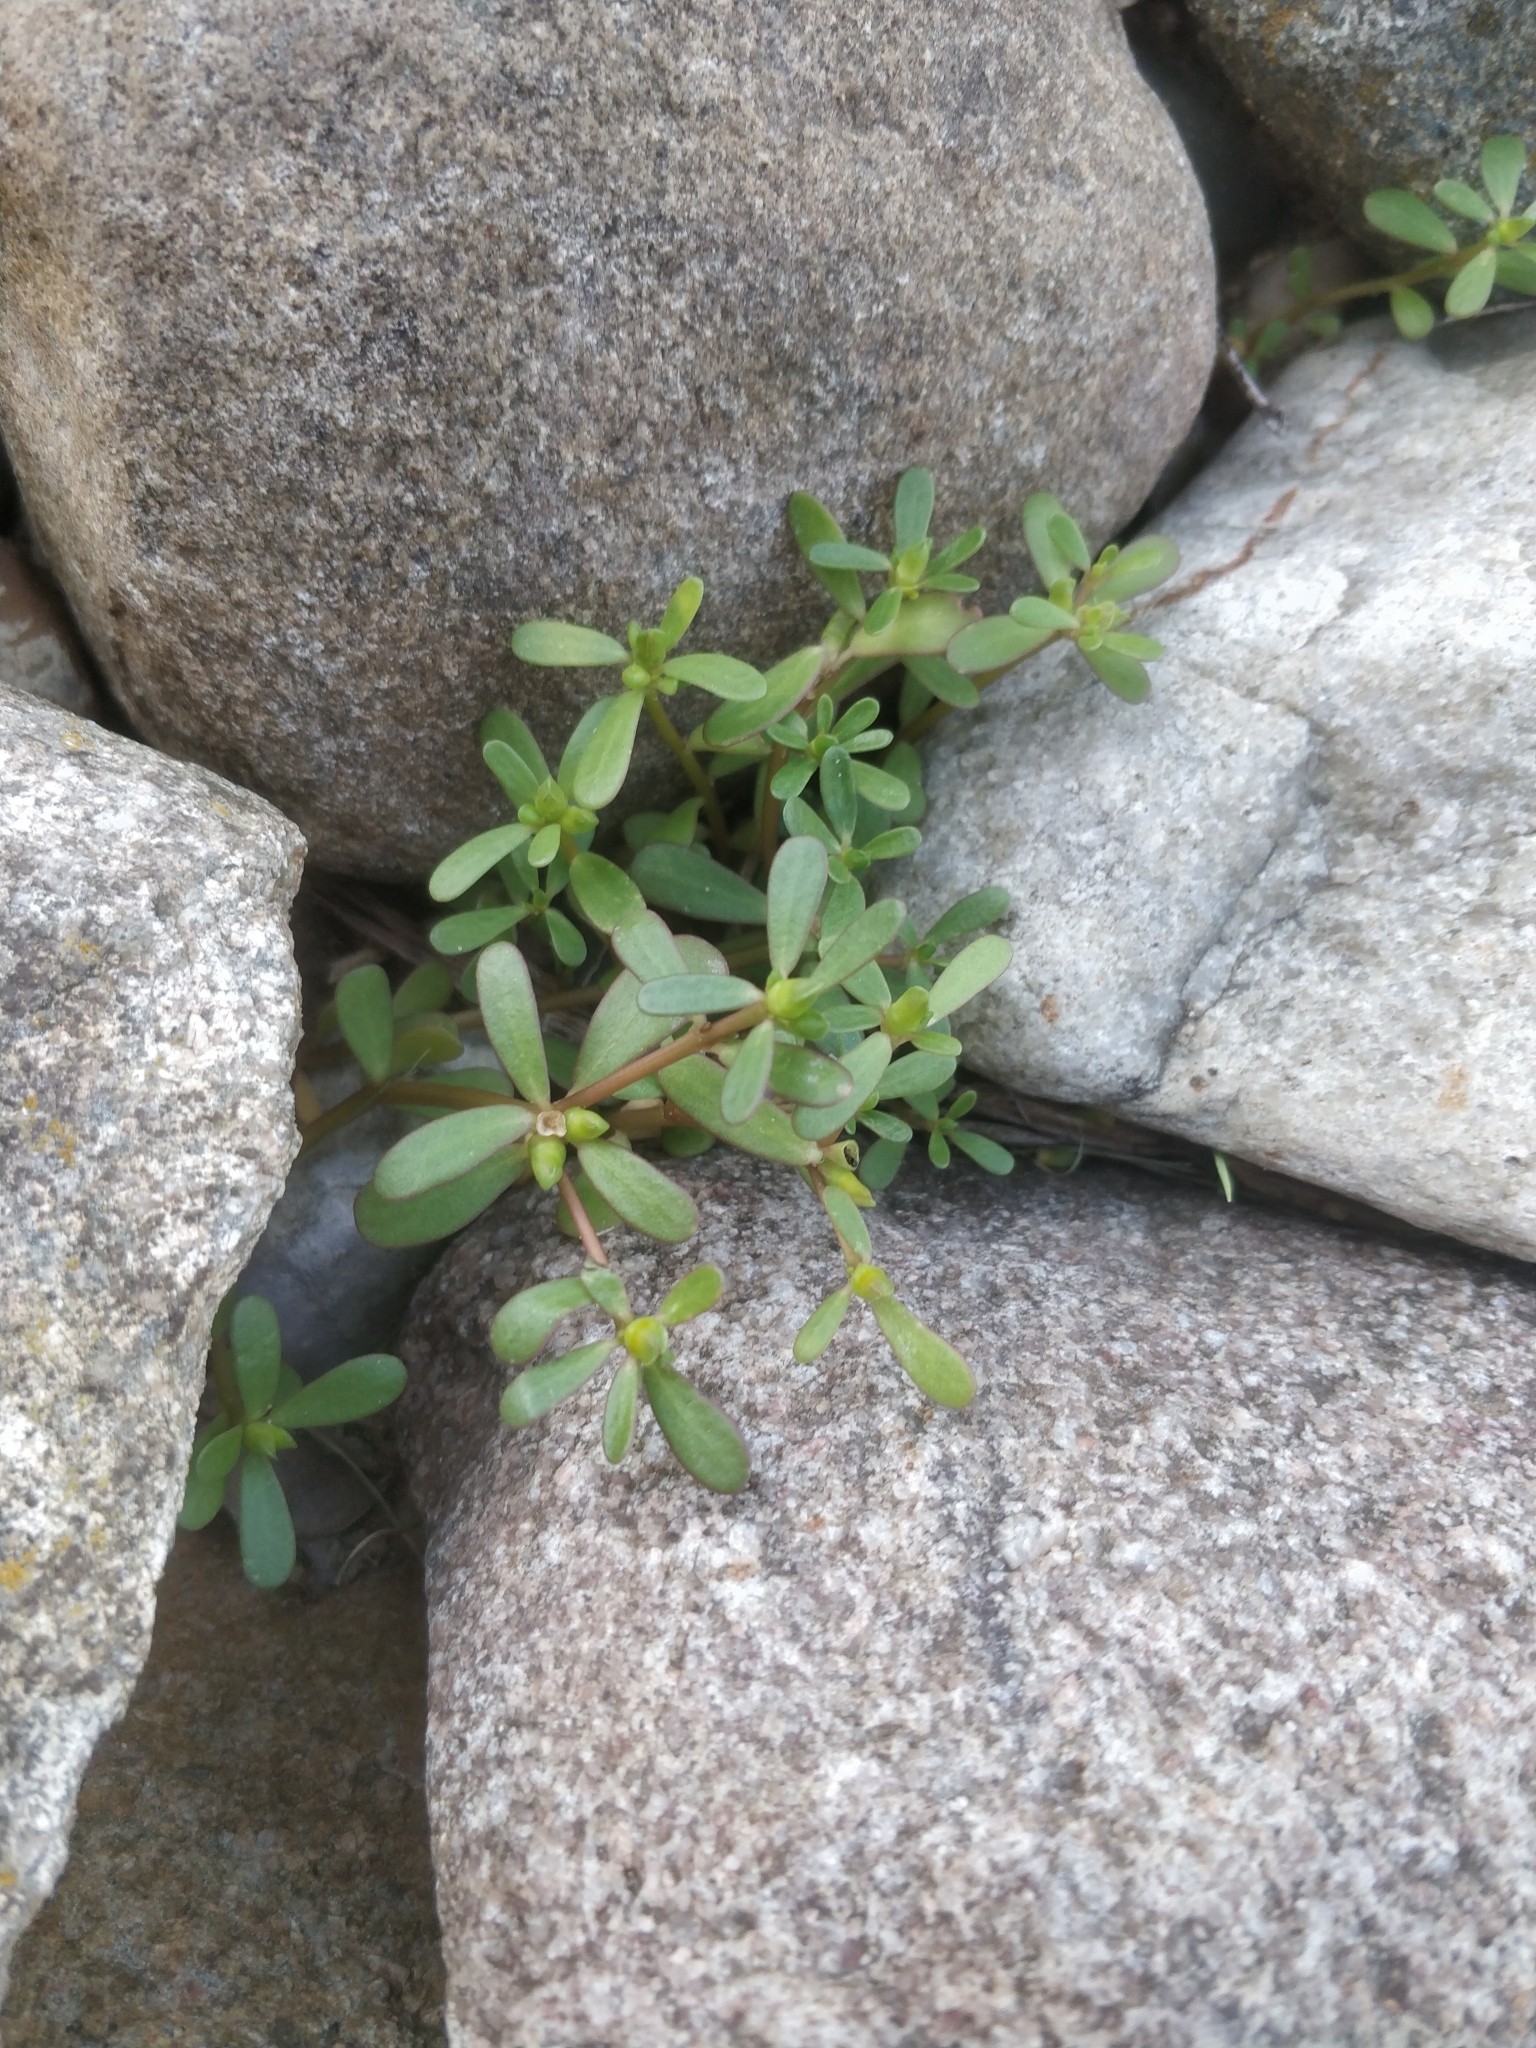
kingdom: Plantae
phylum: Tracheophyta
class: Magnoliopsida
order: Caryophyllales
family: Portulacaceae
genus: Portulaca
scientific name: Portulaca oleracea
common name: Common purslane
